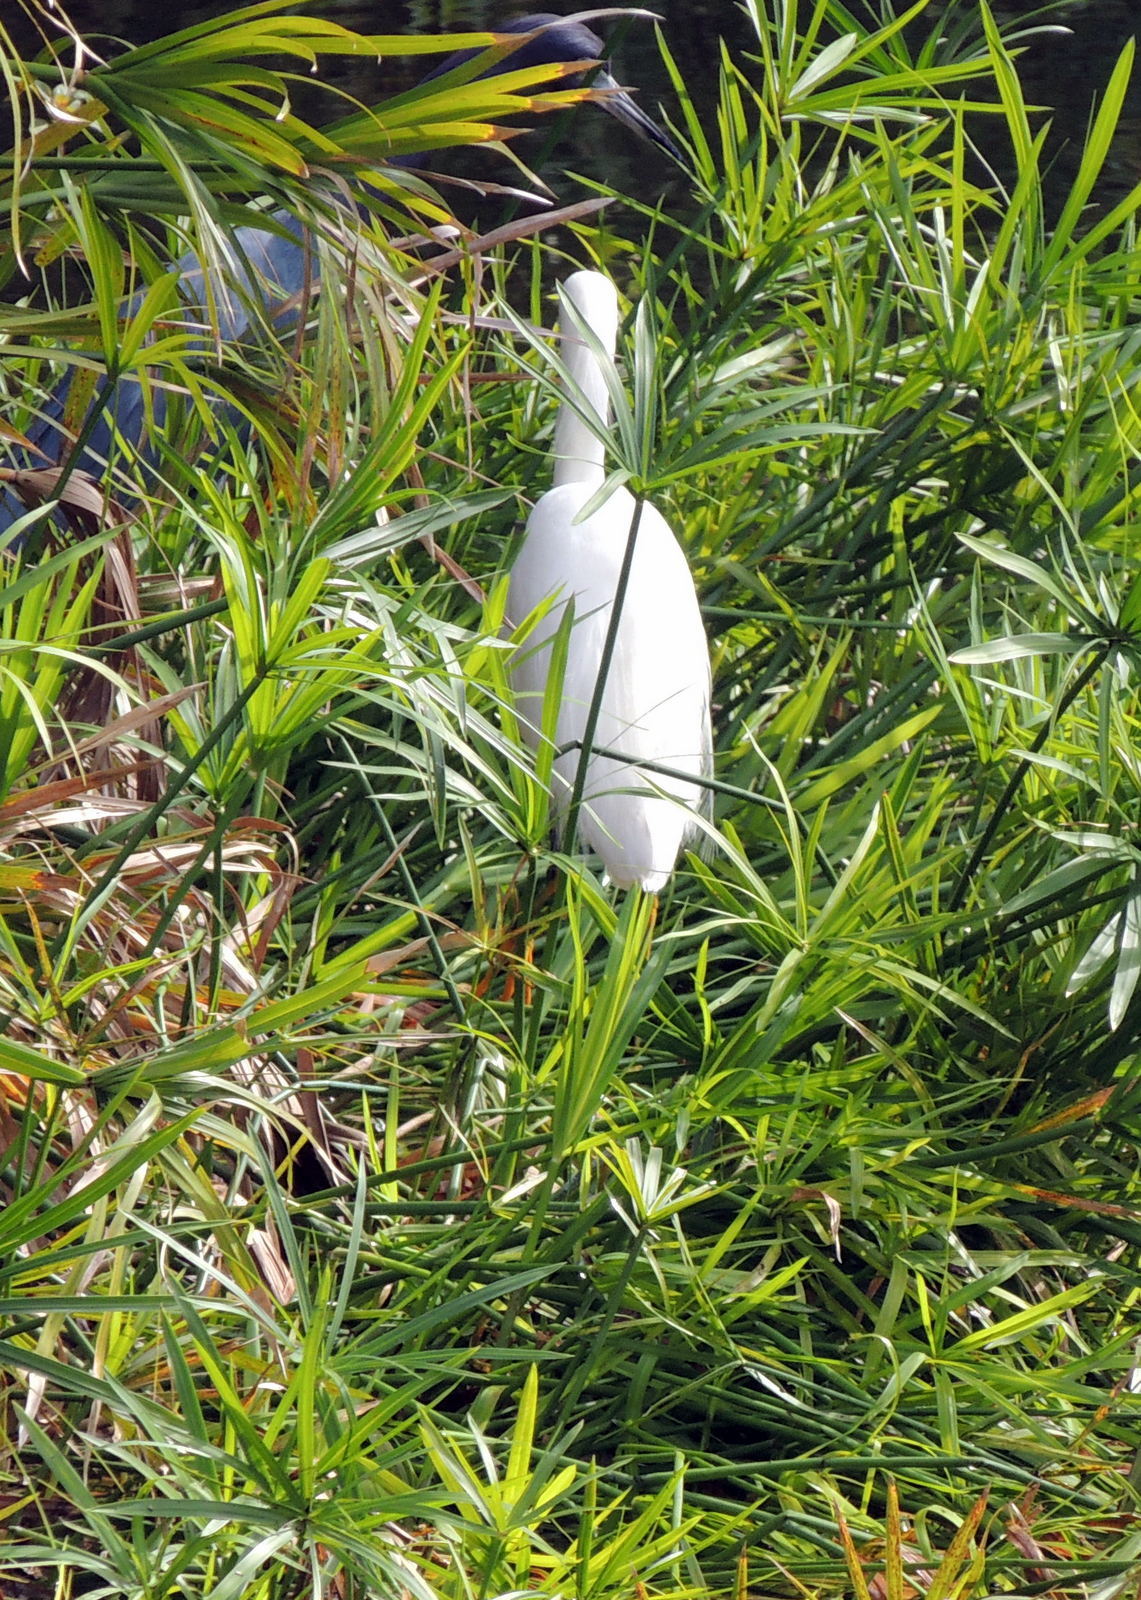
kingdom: Animalia
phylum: Chordata
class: Aves
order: Pelecaniformes
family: Ardeidae
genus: Egretta
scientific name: Egretta thula
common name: Snowy egret
